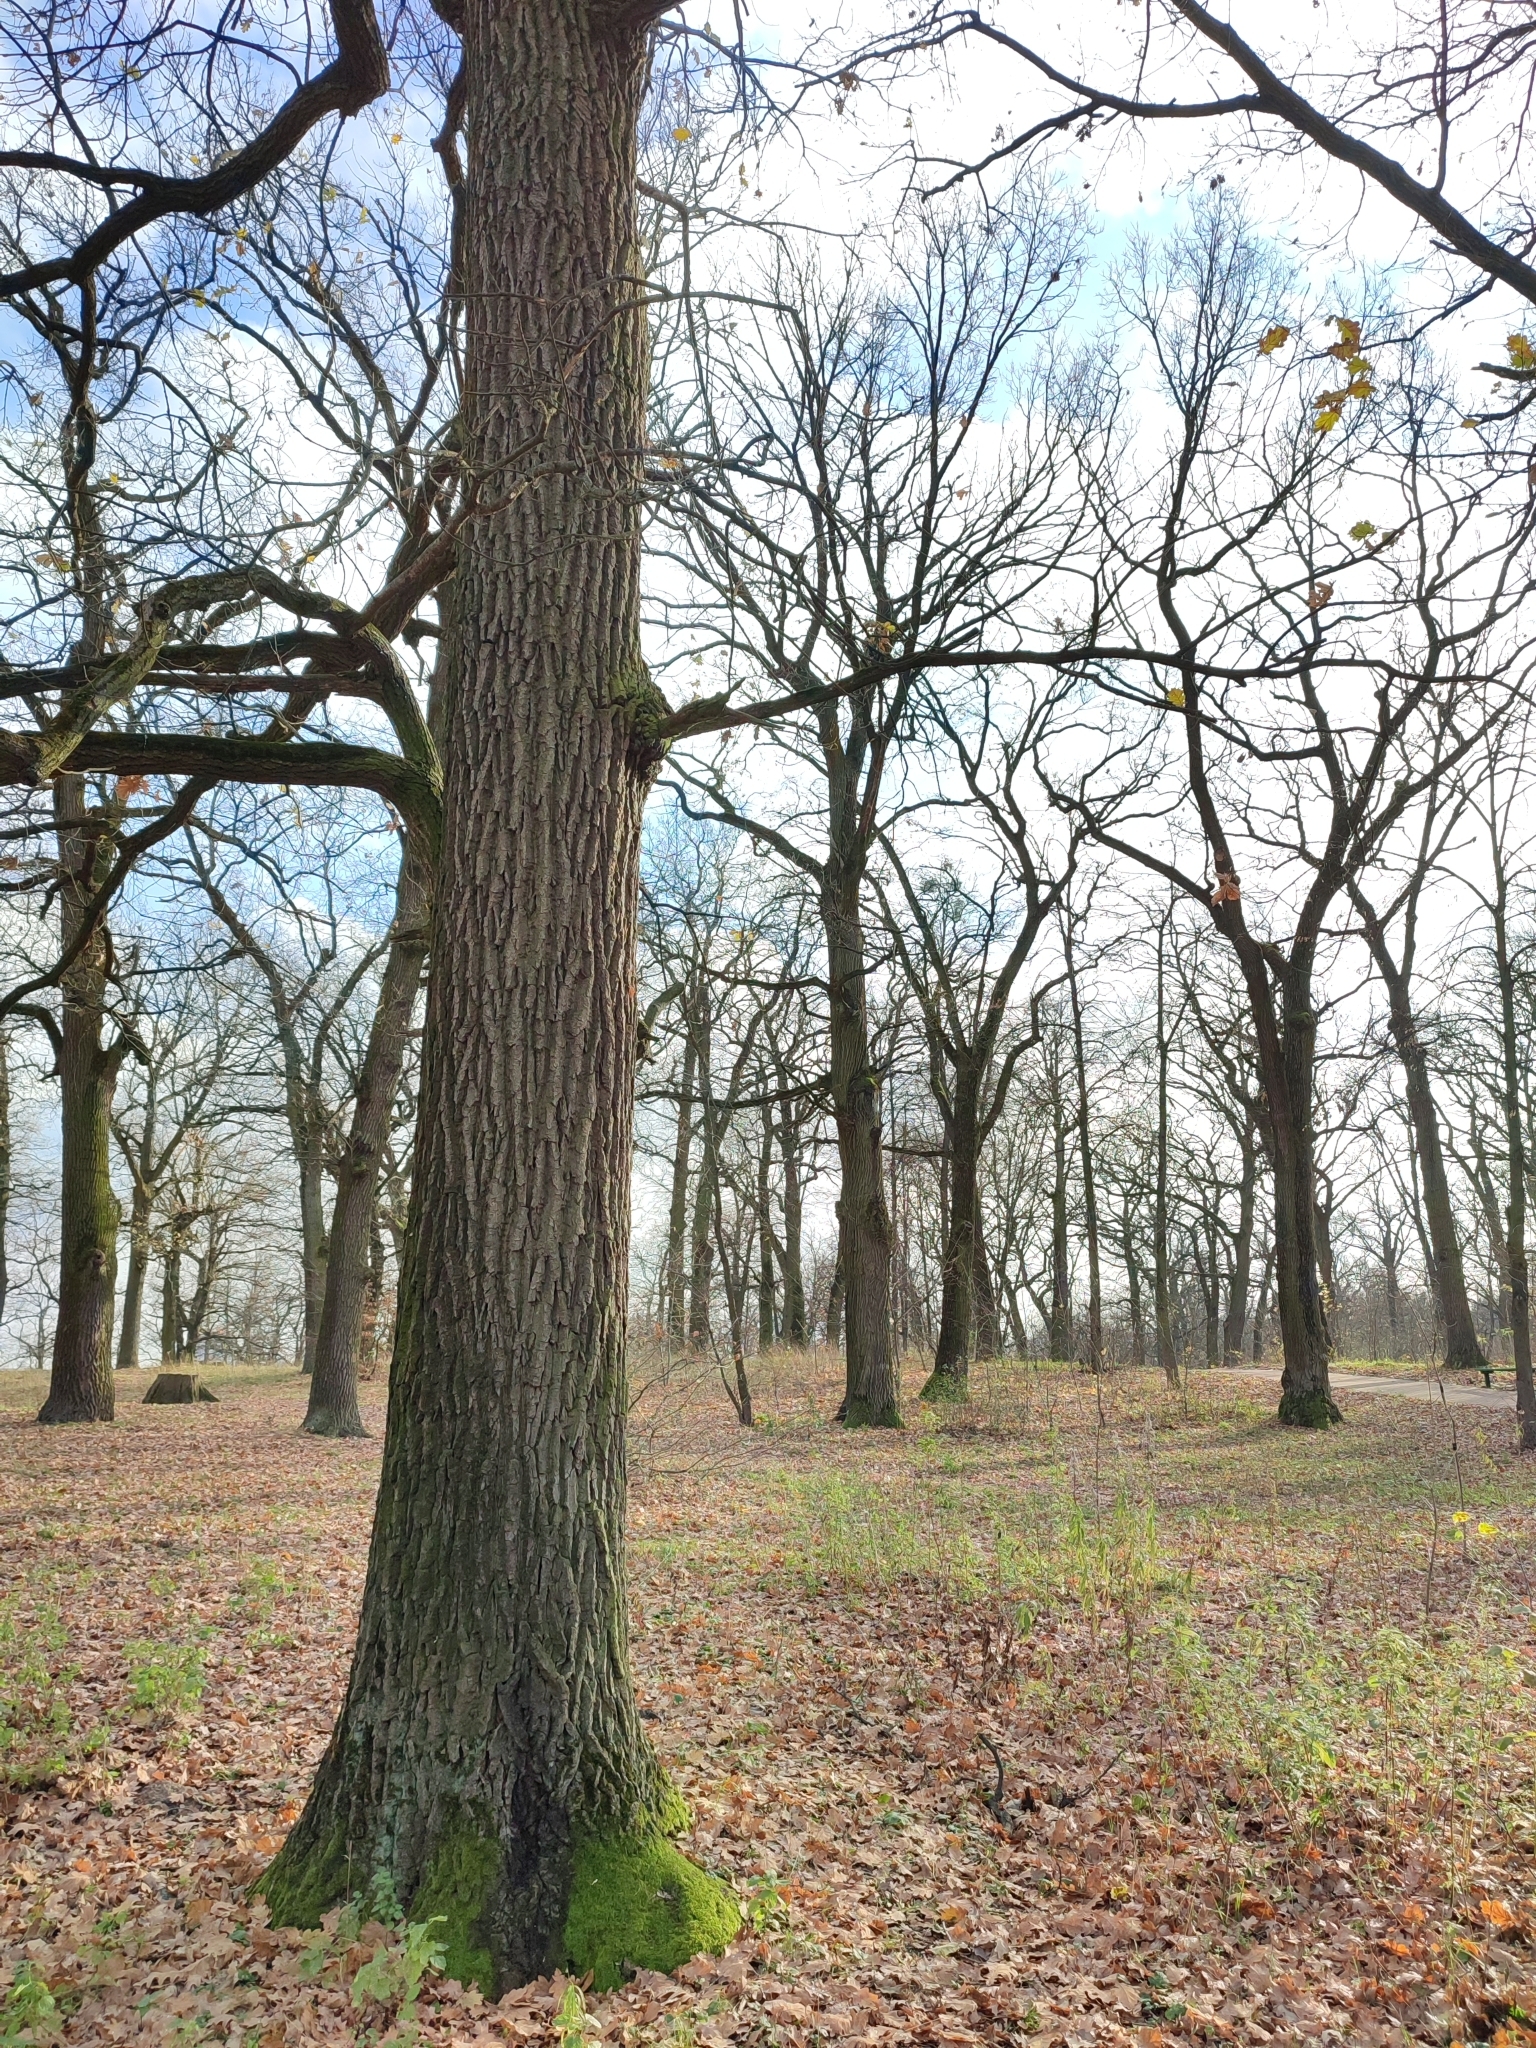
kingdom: Plantae
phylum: Tracheophyta
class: Magnoliopsida
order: Fagales
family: Fagaceae
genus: Quercus
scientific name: Quercus robur
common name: Pedunculate oak
